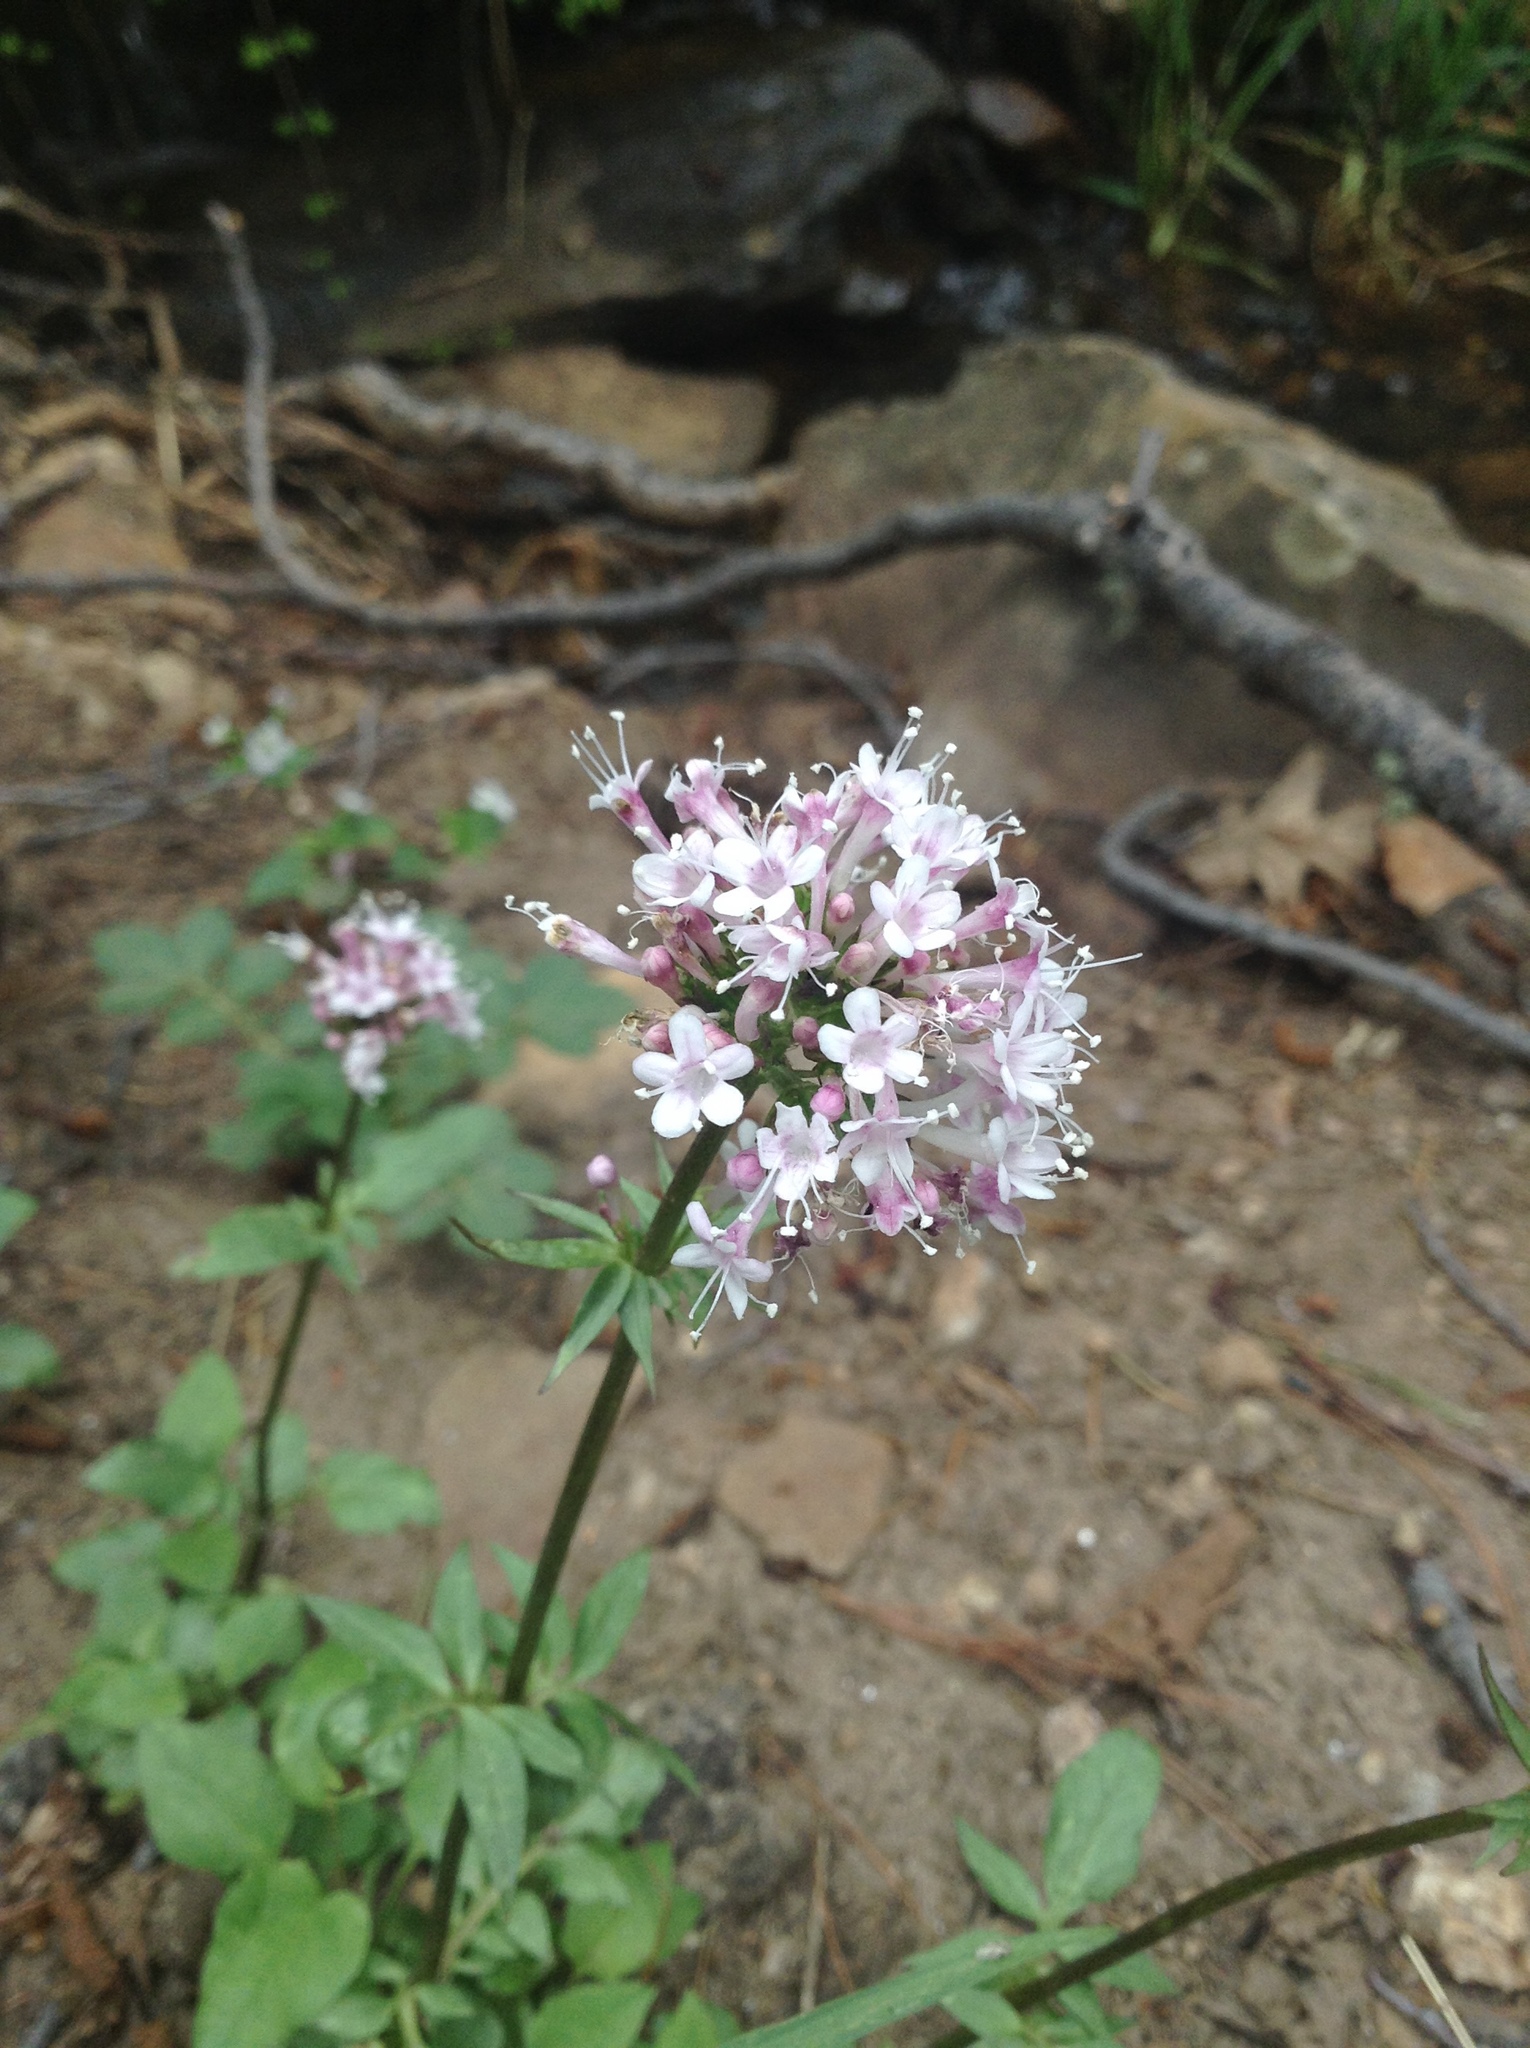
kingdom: Plantae
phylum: Tracheophyta
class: Magnoliopsida
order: Dipsacales
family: Caprifoliaceae
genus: Valeriana
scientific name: Valeriana arizonica
